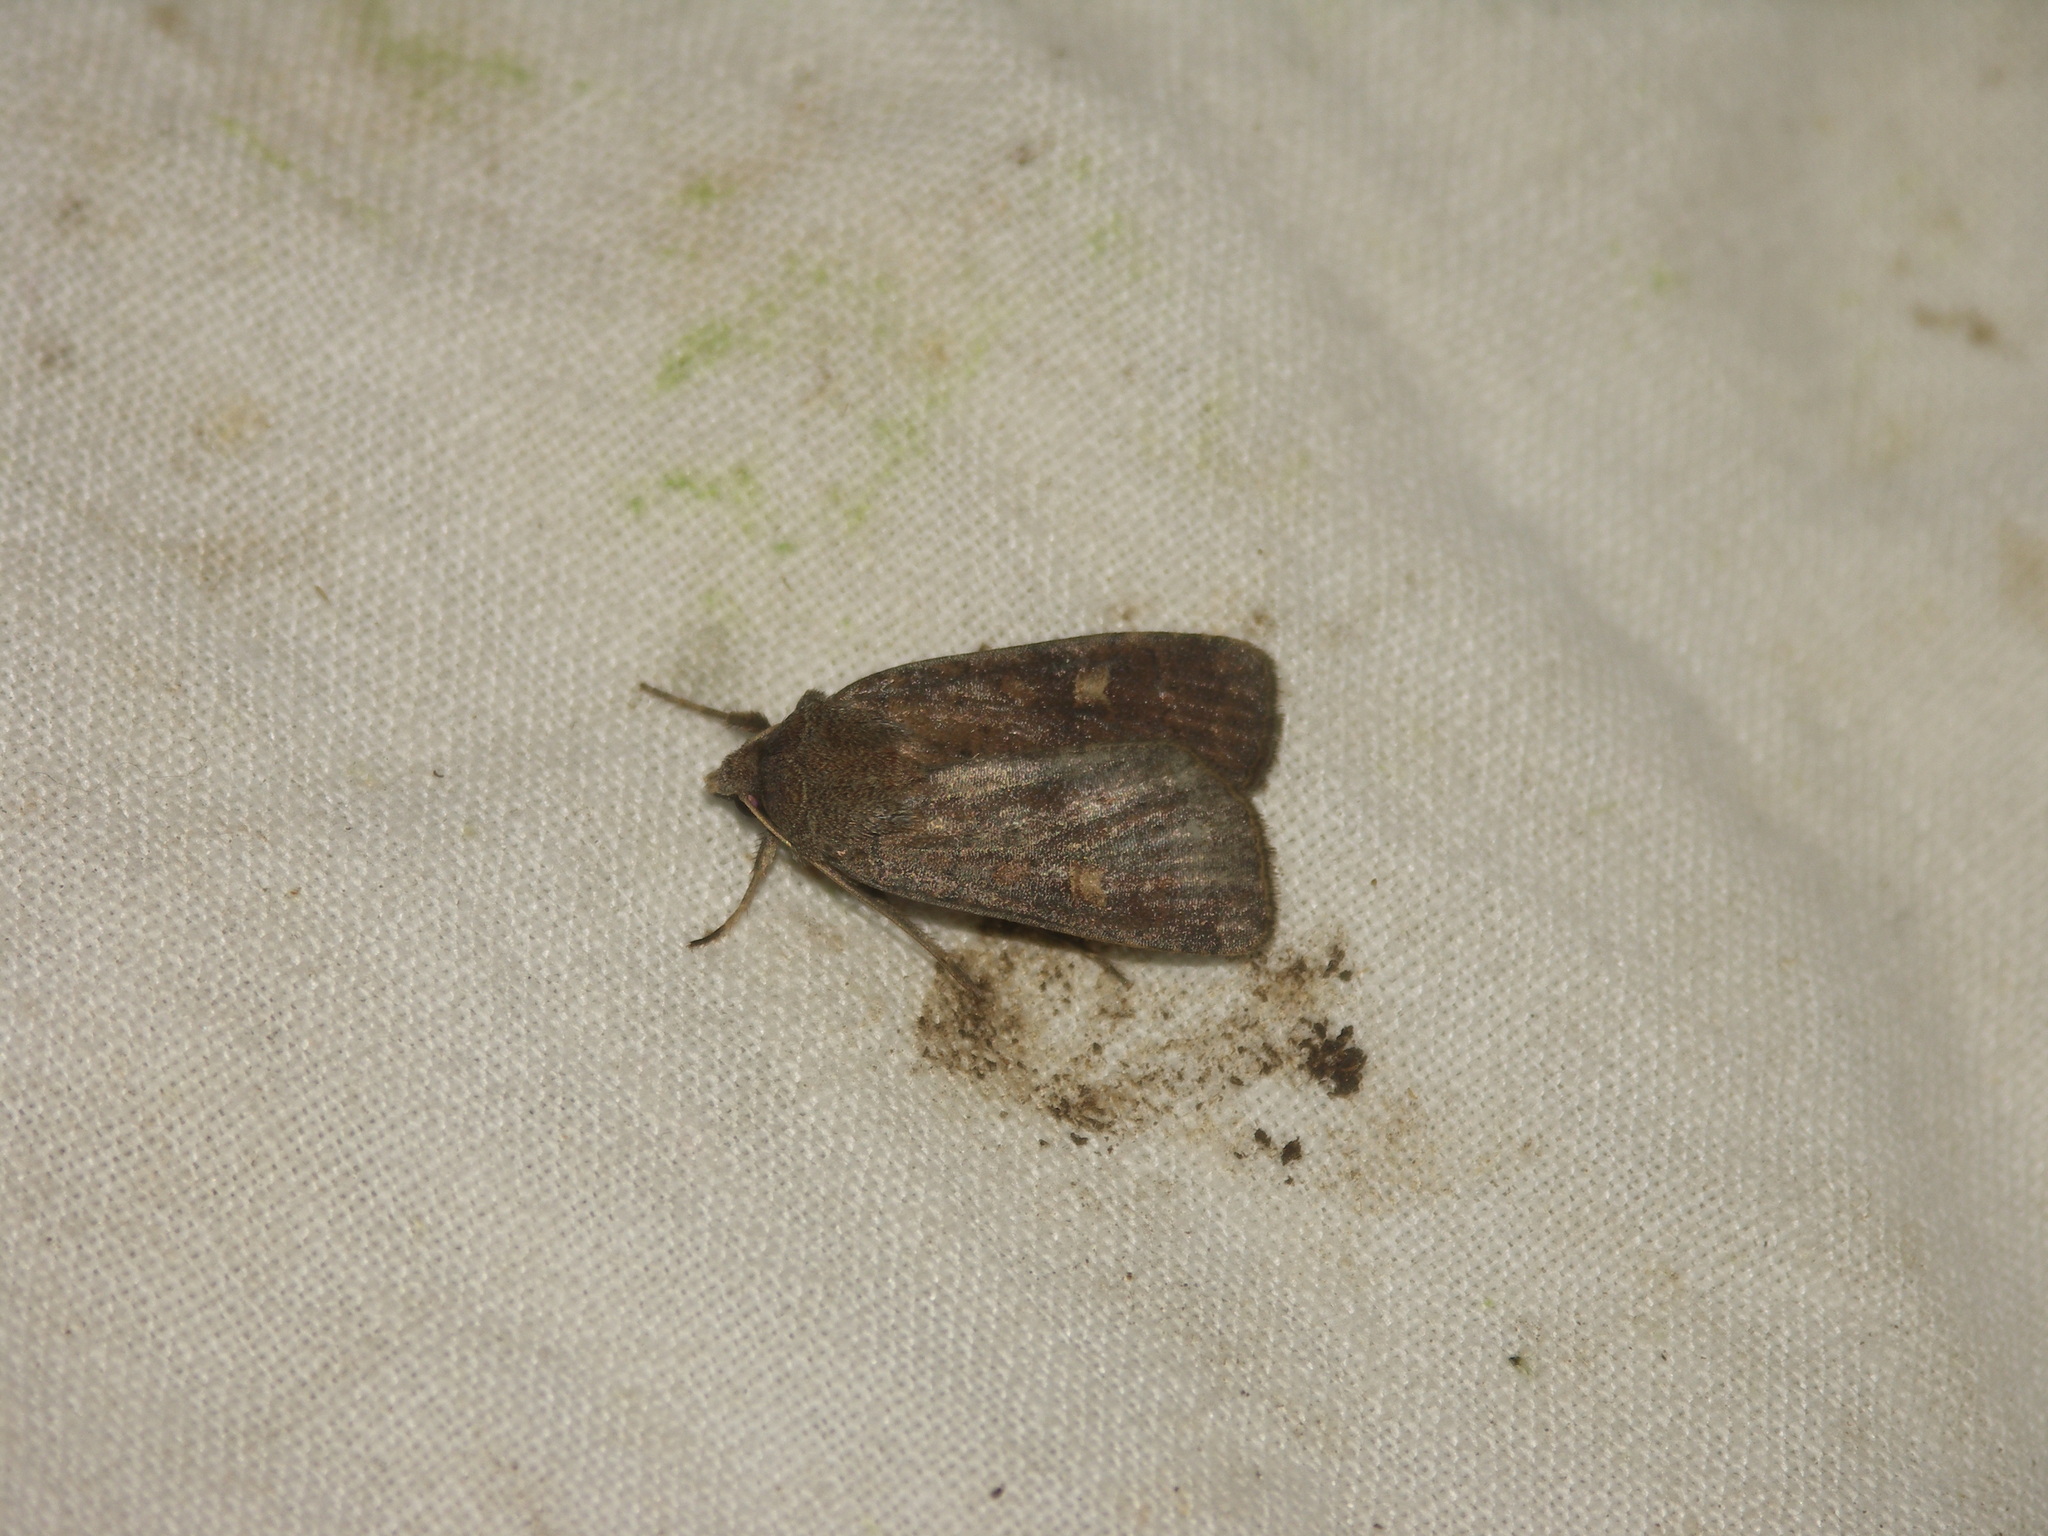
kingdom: Animalia
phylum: Arthropoda
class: Insecta
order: Lepidoptera
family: Noctuidae
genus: Xestia
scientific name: Xestia xanthographa
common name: Square-spot rustic
